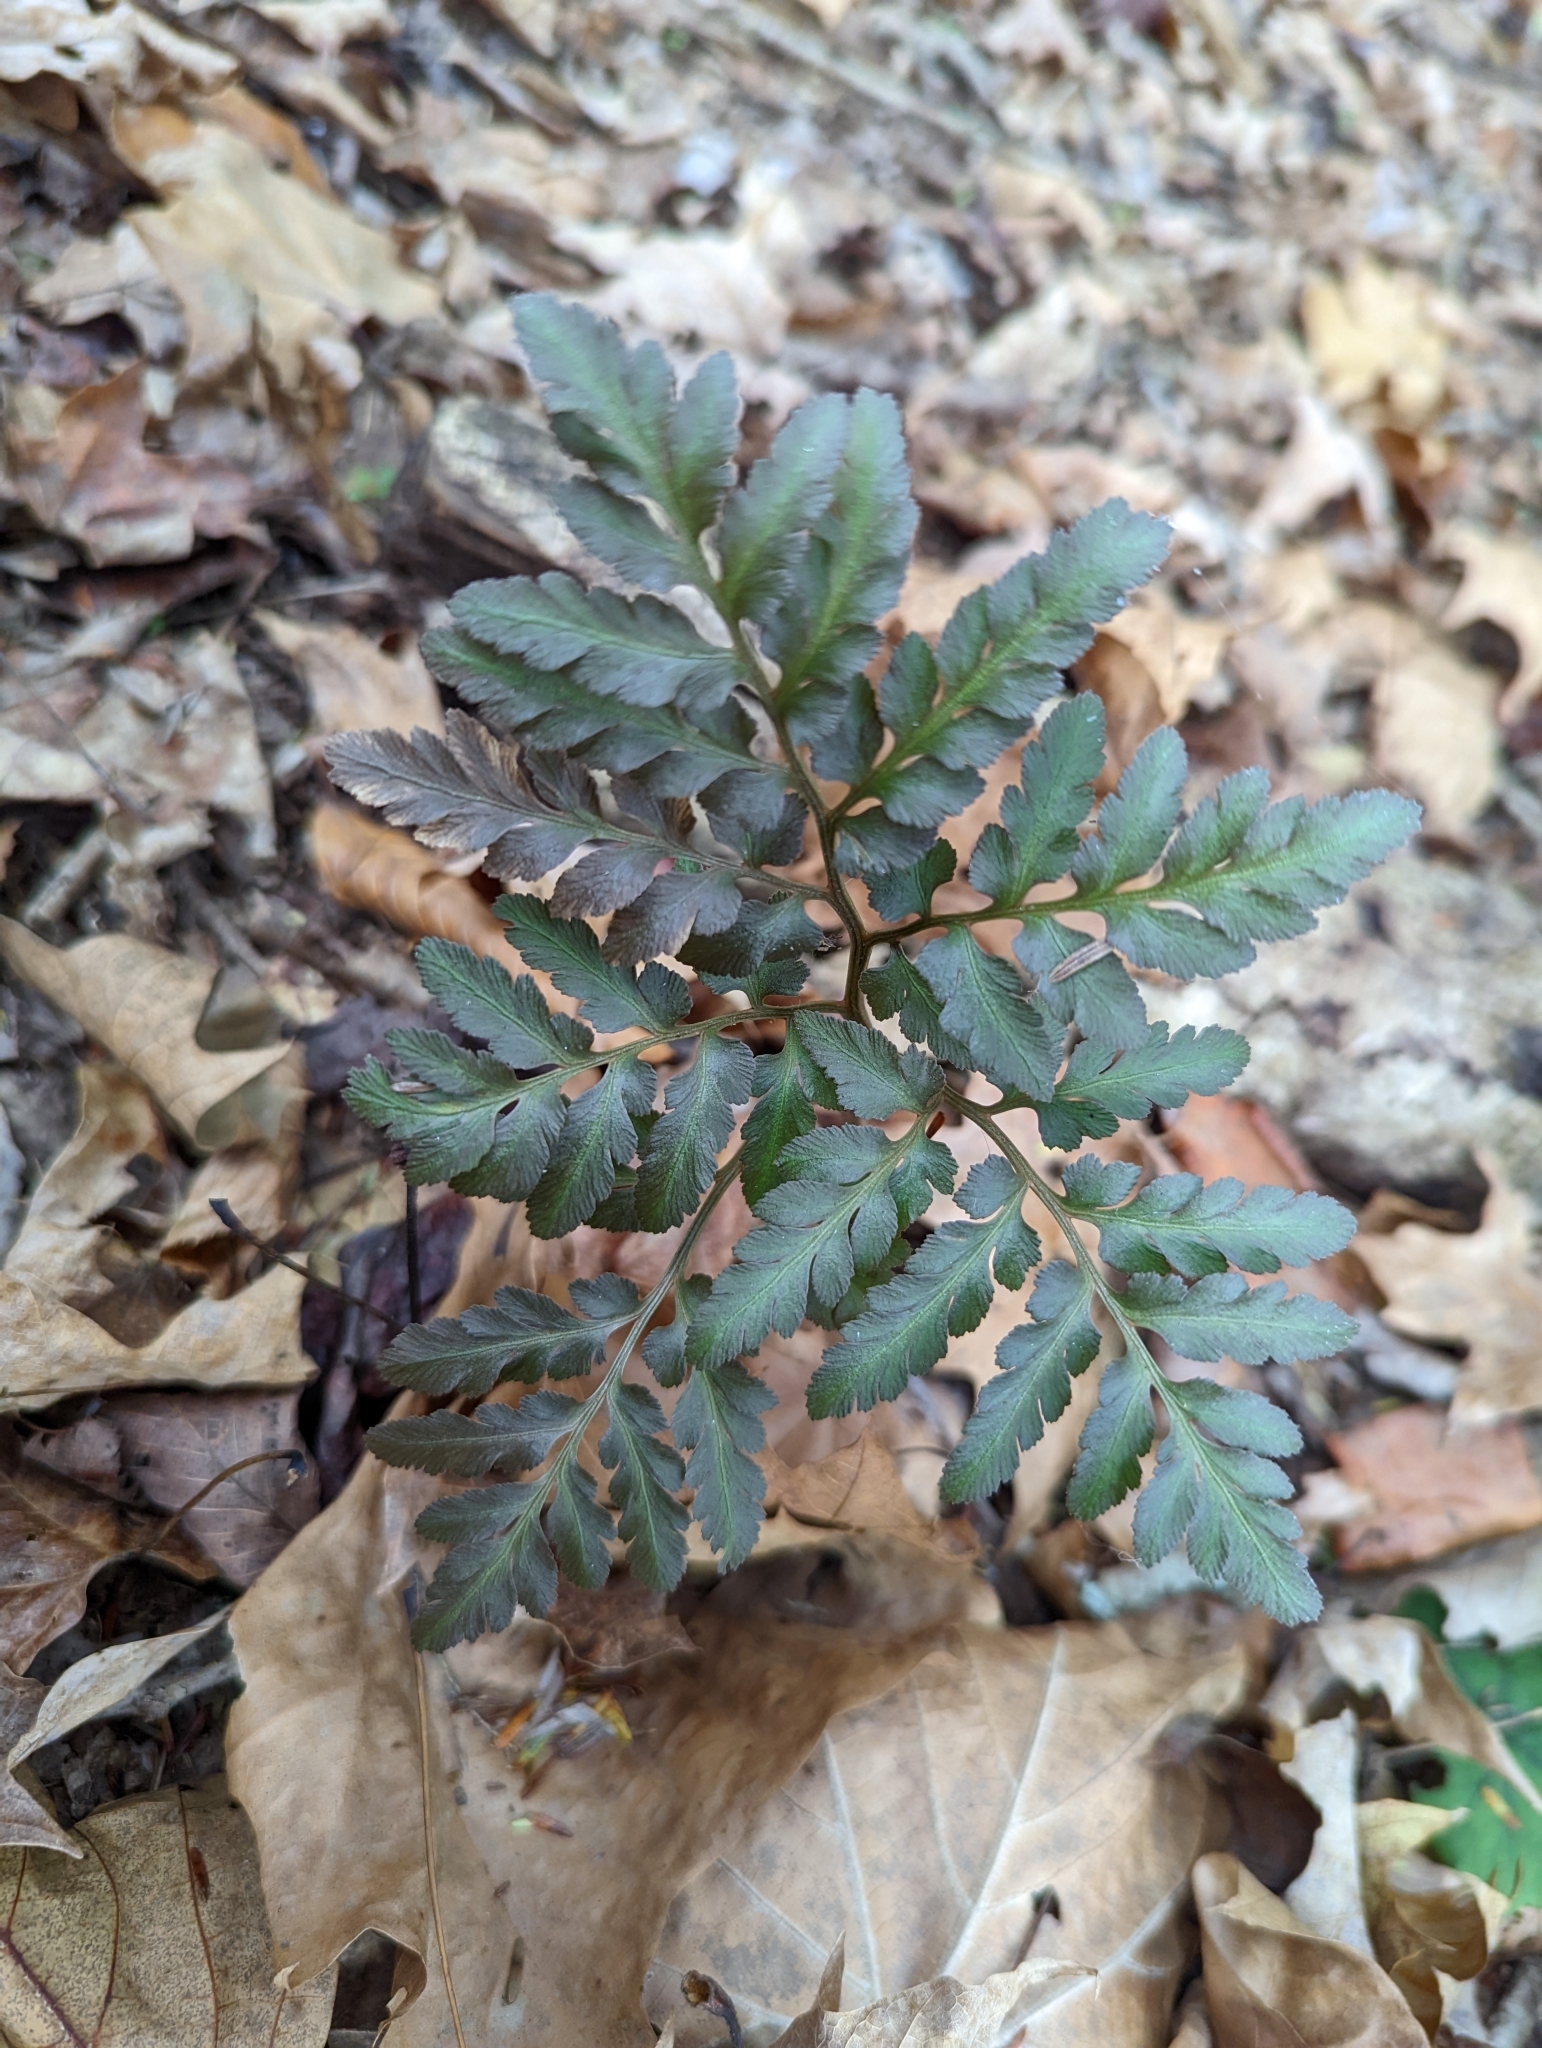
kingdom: Plantae
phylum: Tracheophyta
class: Polypodiopsida
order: Ophioglossales
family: Ophioglossaceae
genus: Sceptridium
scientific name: Sceptridium dissectum
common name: Cut-leaved grapefern
